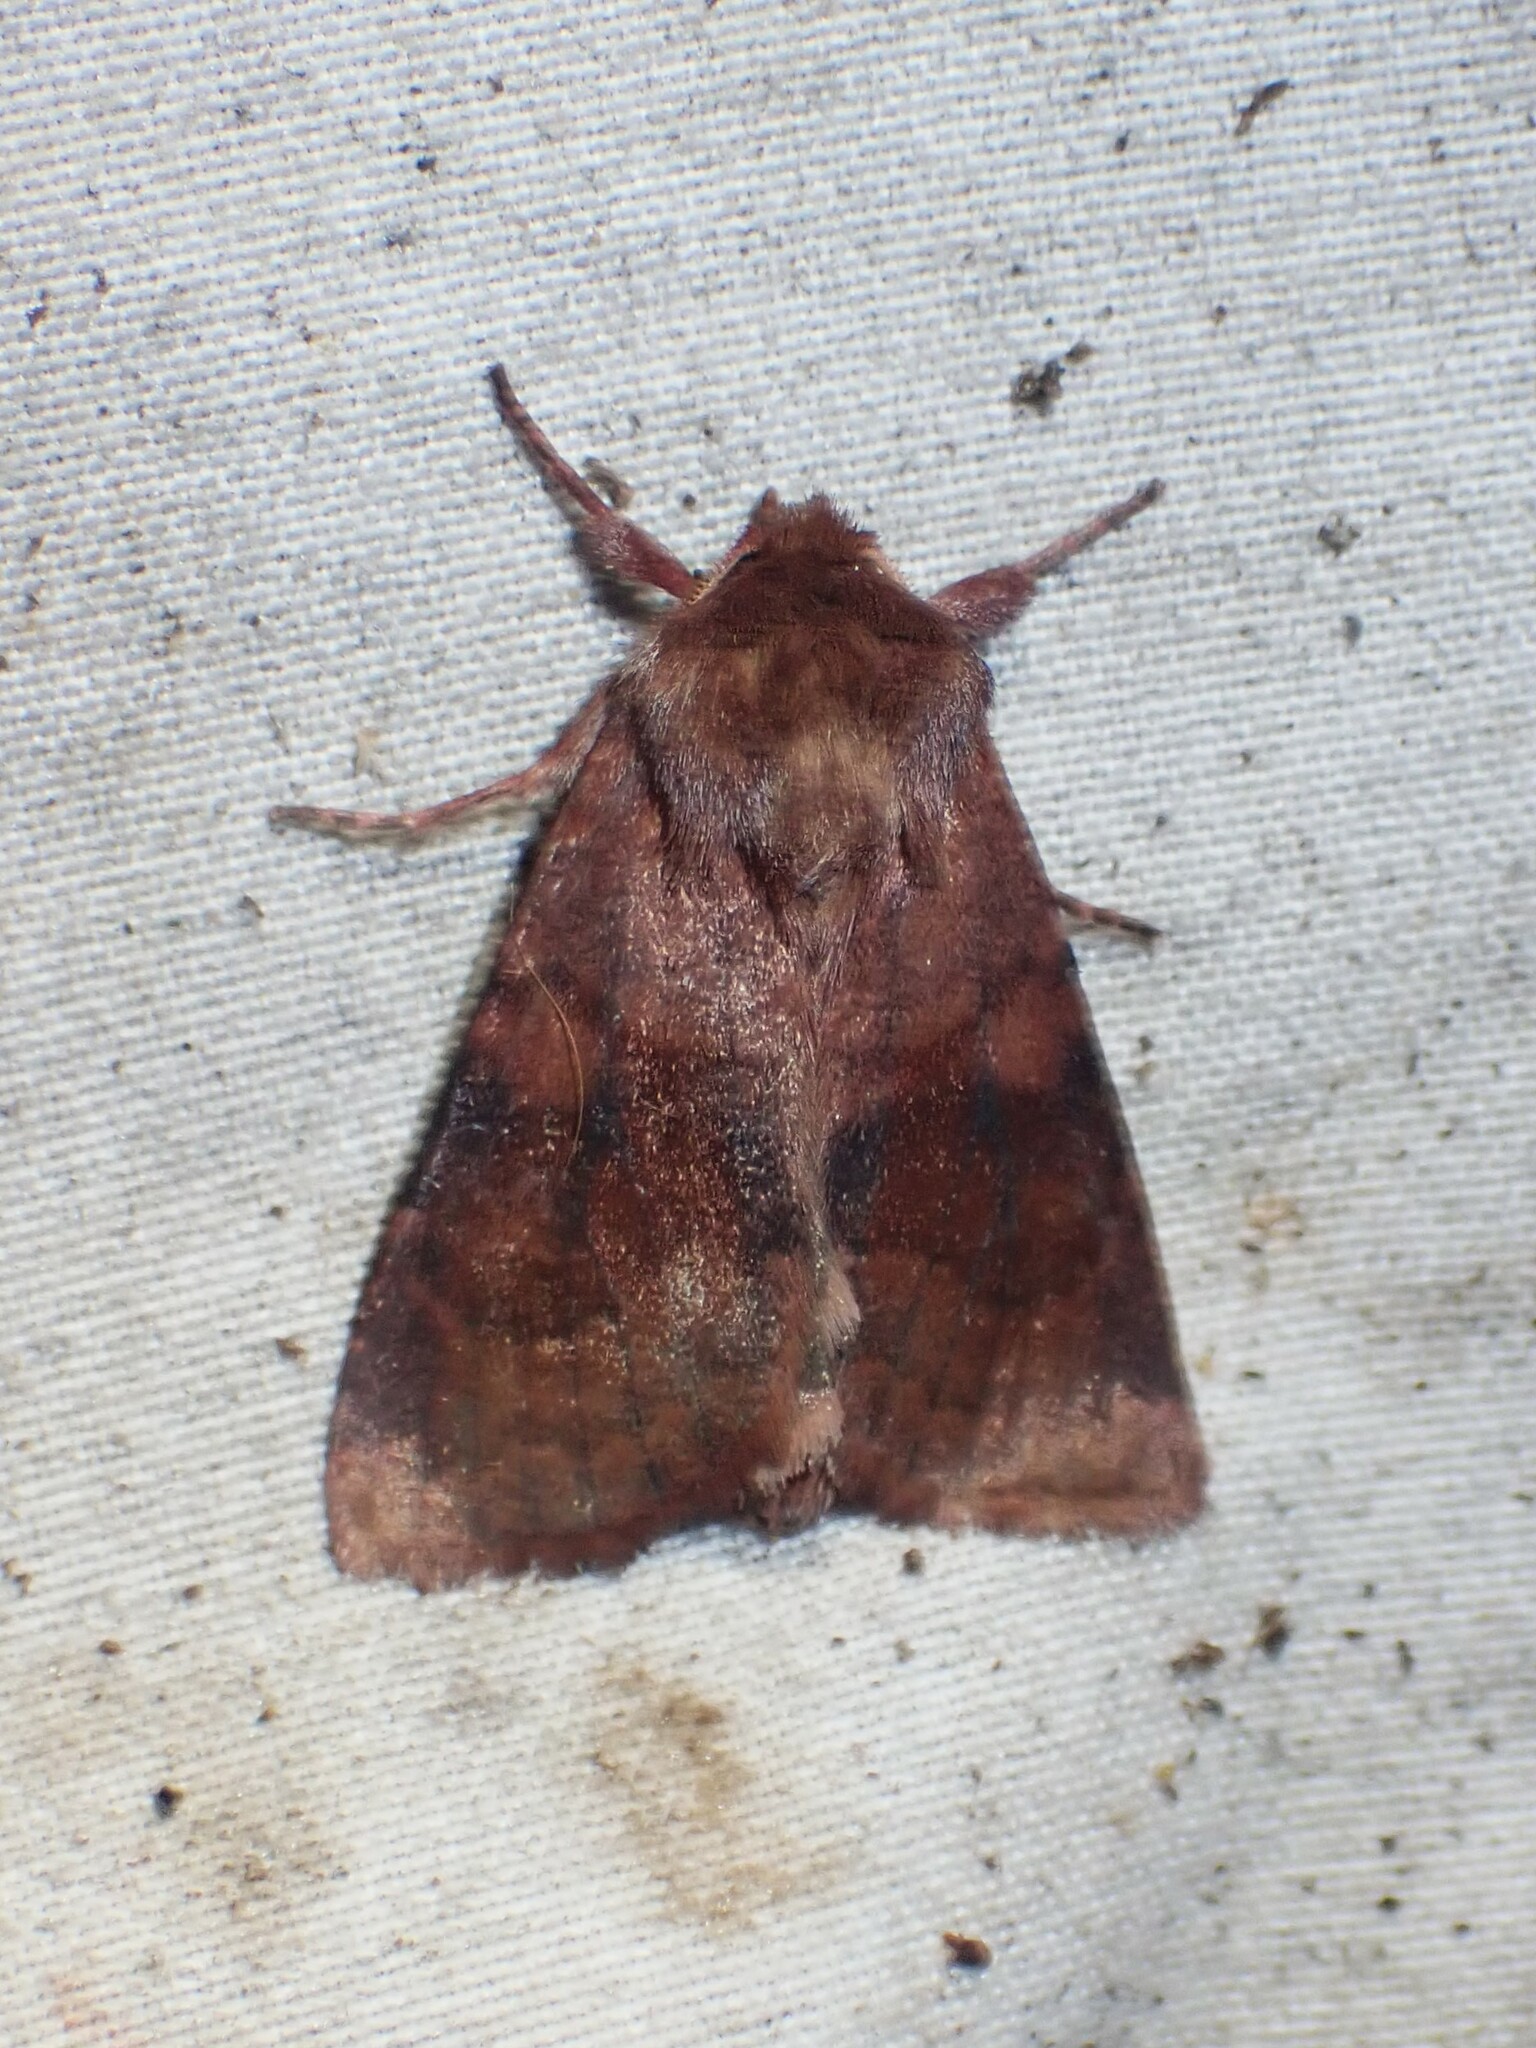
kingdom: Animalia
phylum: Arthropoda
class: Insecta
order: Lepidoptera
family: Noctuidae
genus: Nephelodes
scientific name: Nephelodes minians
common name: Bronzed cutworm
